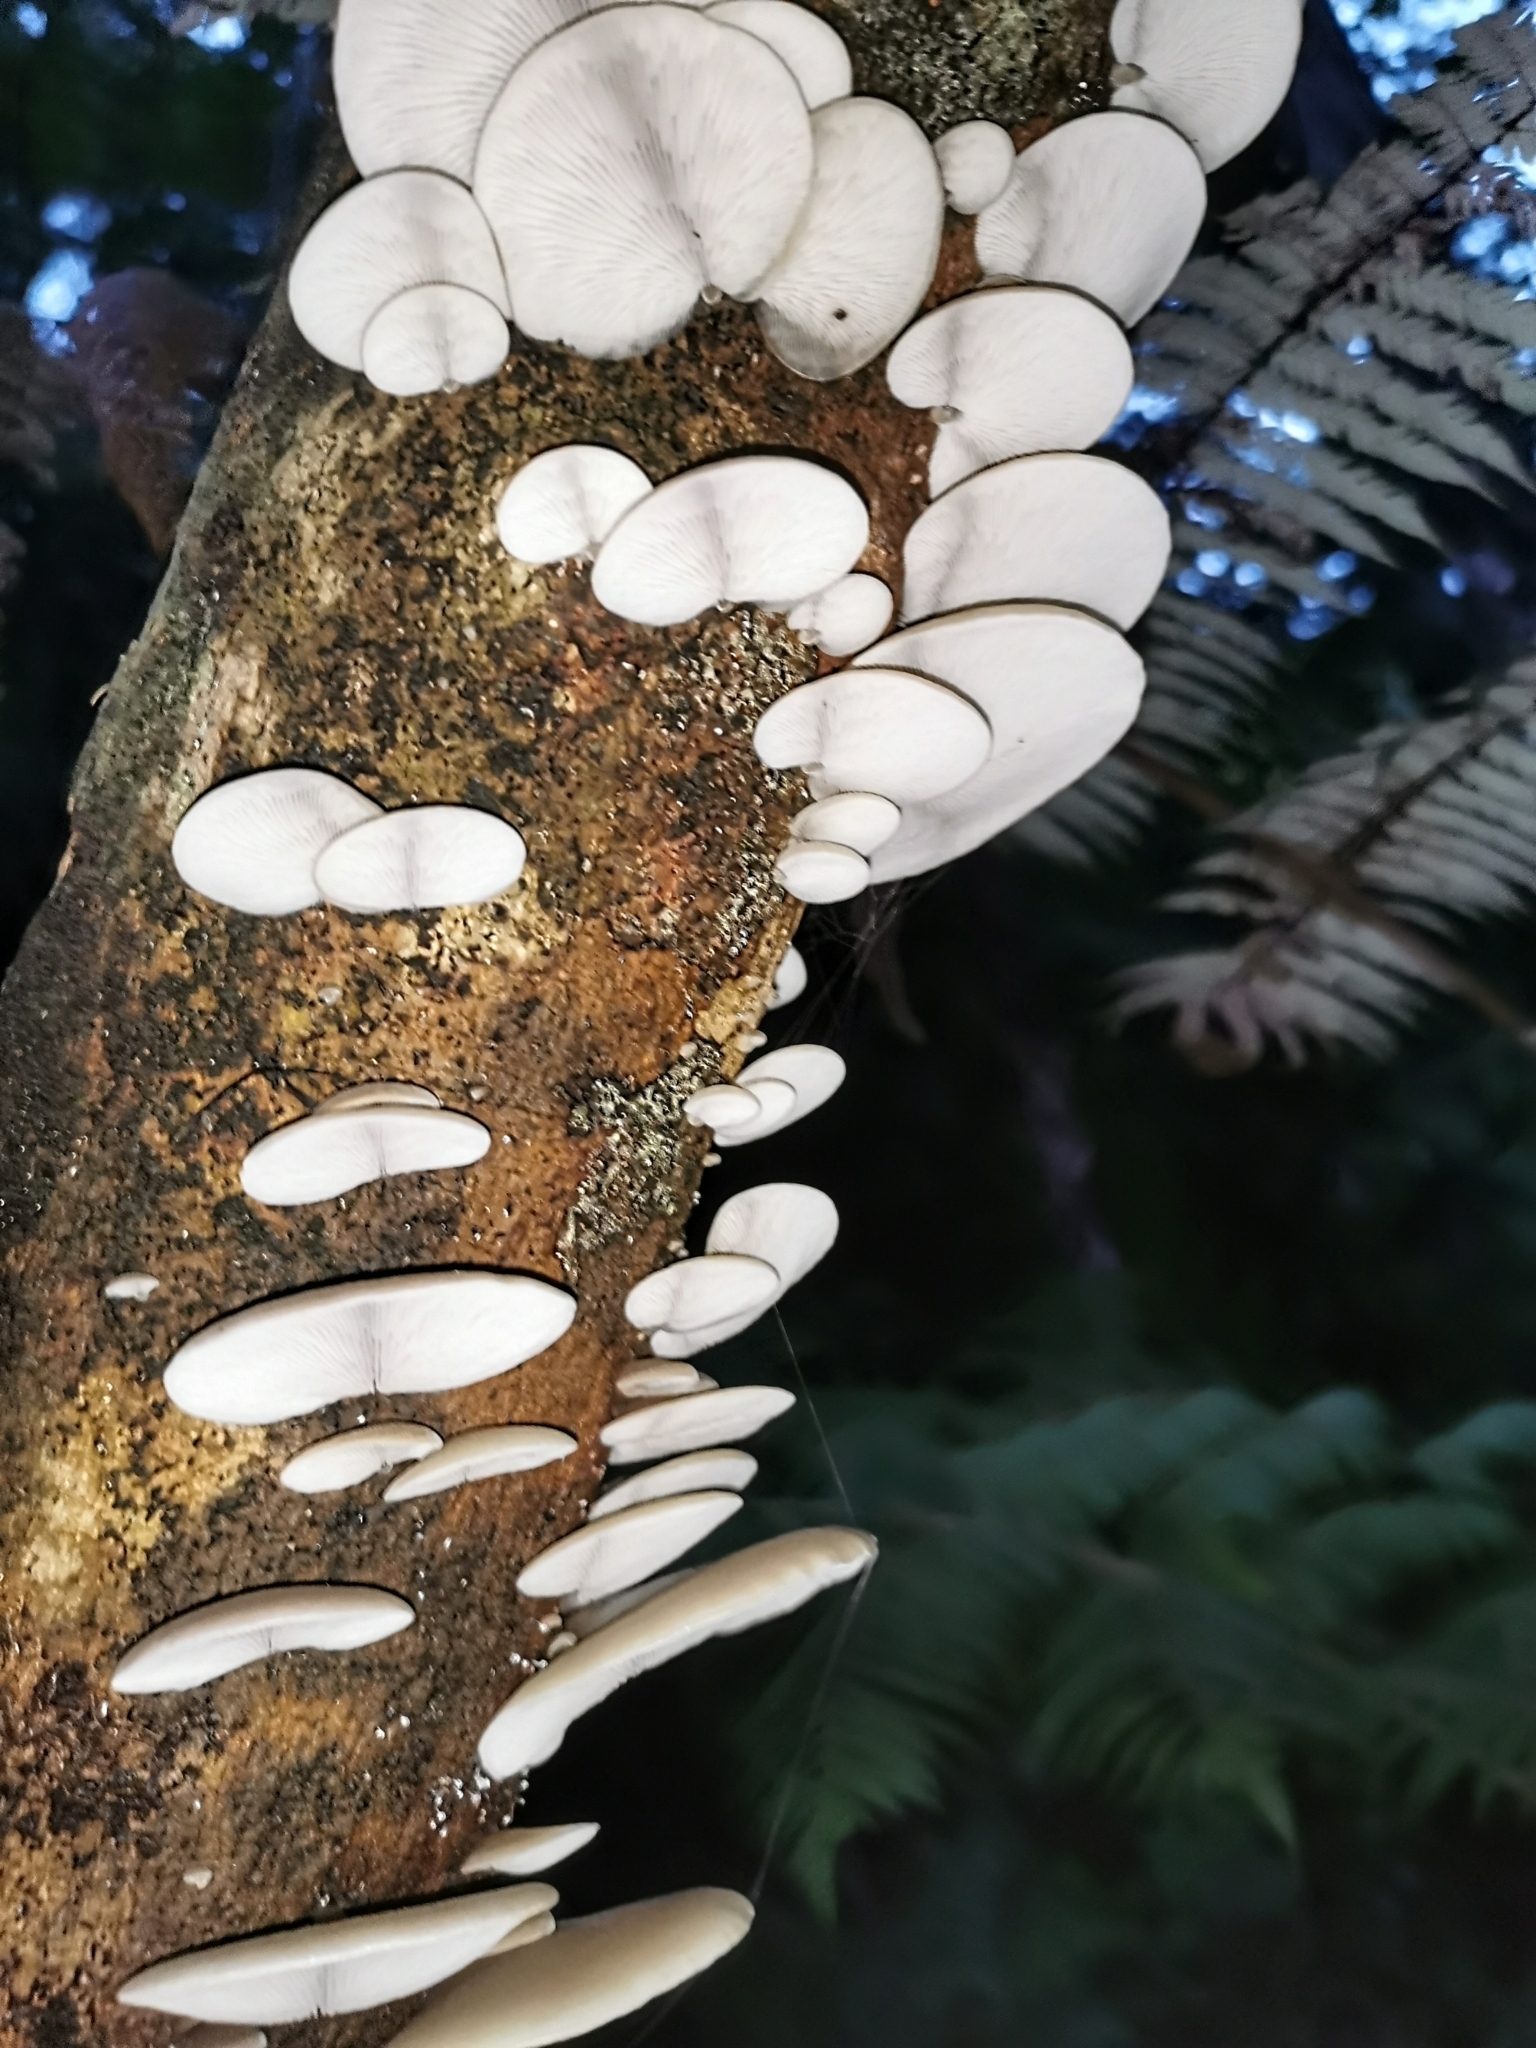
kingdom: Fungi
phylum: Basidiomycota
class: Agaricomycetes
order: Agaricales
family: Tricholomataceae
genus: Conchomyces
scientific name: Conchomyces bursiformis
